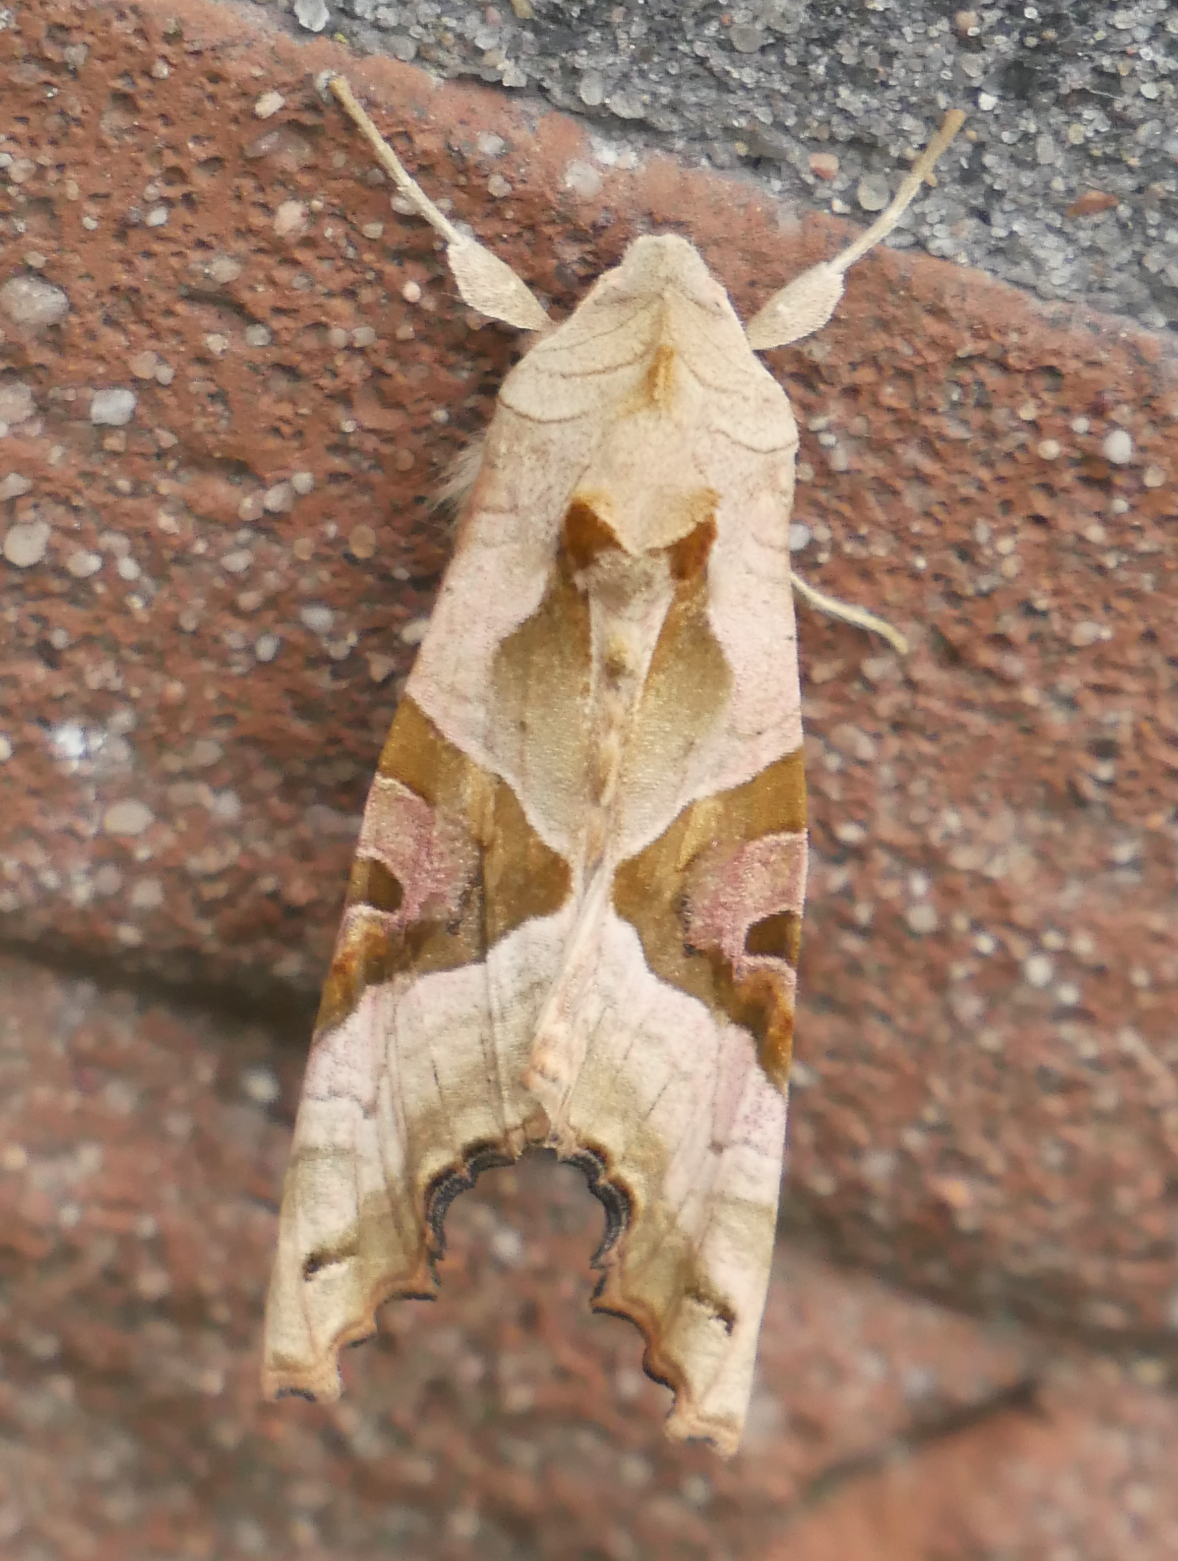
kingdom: Animalia
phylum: Arthropoda
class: Insecta
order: Lepidoptera
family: Noctuidae
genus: Phlogophora
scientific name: Phlogophora meticulosa
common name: Angle shades
